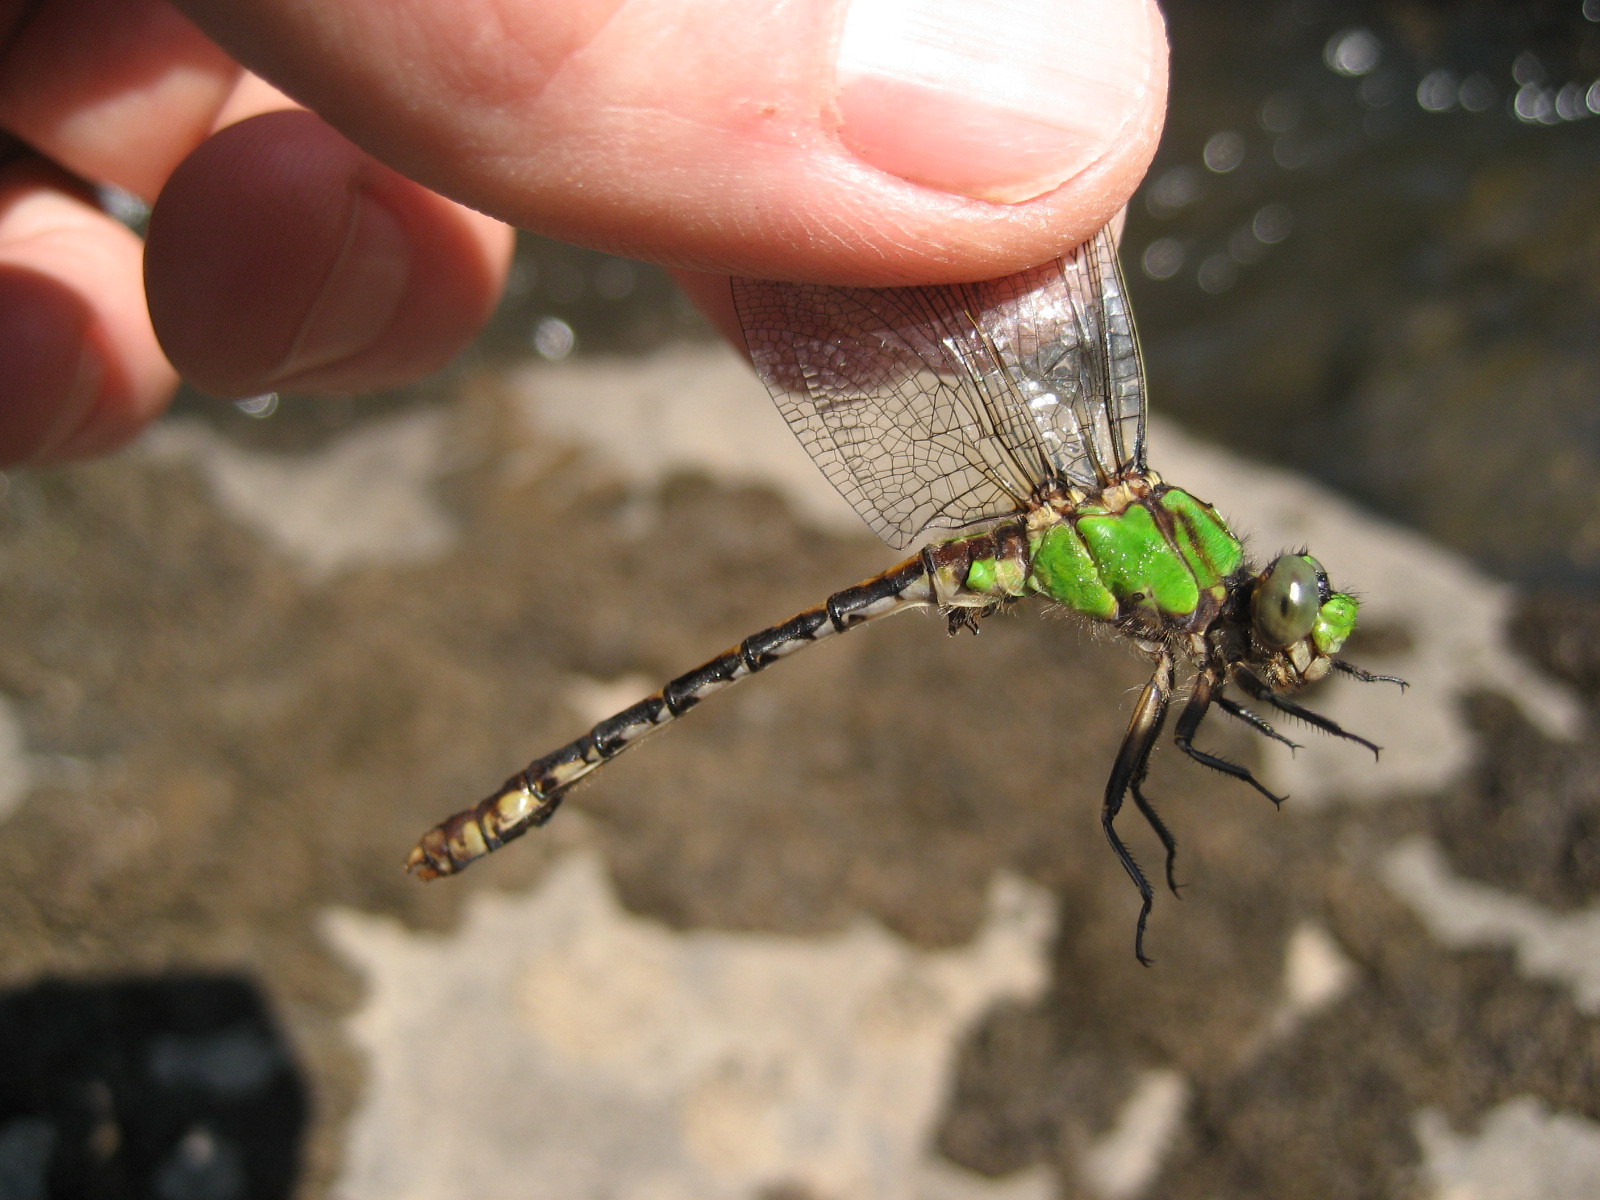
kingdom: Animalia
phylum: Arthropoda
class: Insecta
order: Odonata
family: Gomphidae
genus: Ophiogomphus
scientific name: Ophiogomphus rupinsulensis
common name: Rusty snaketail
